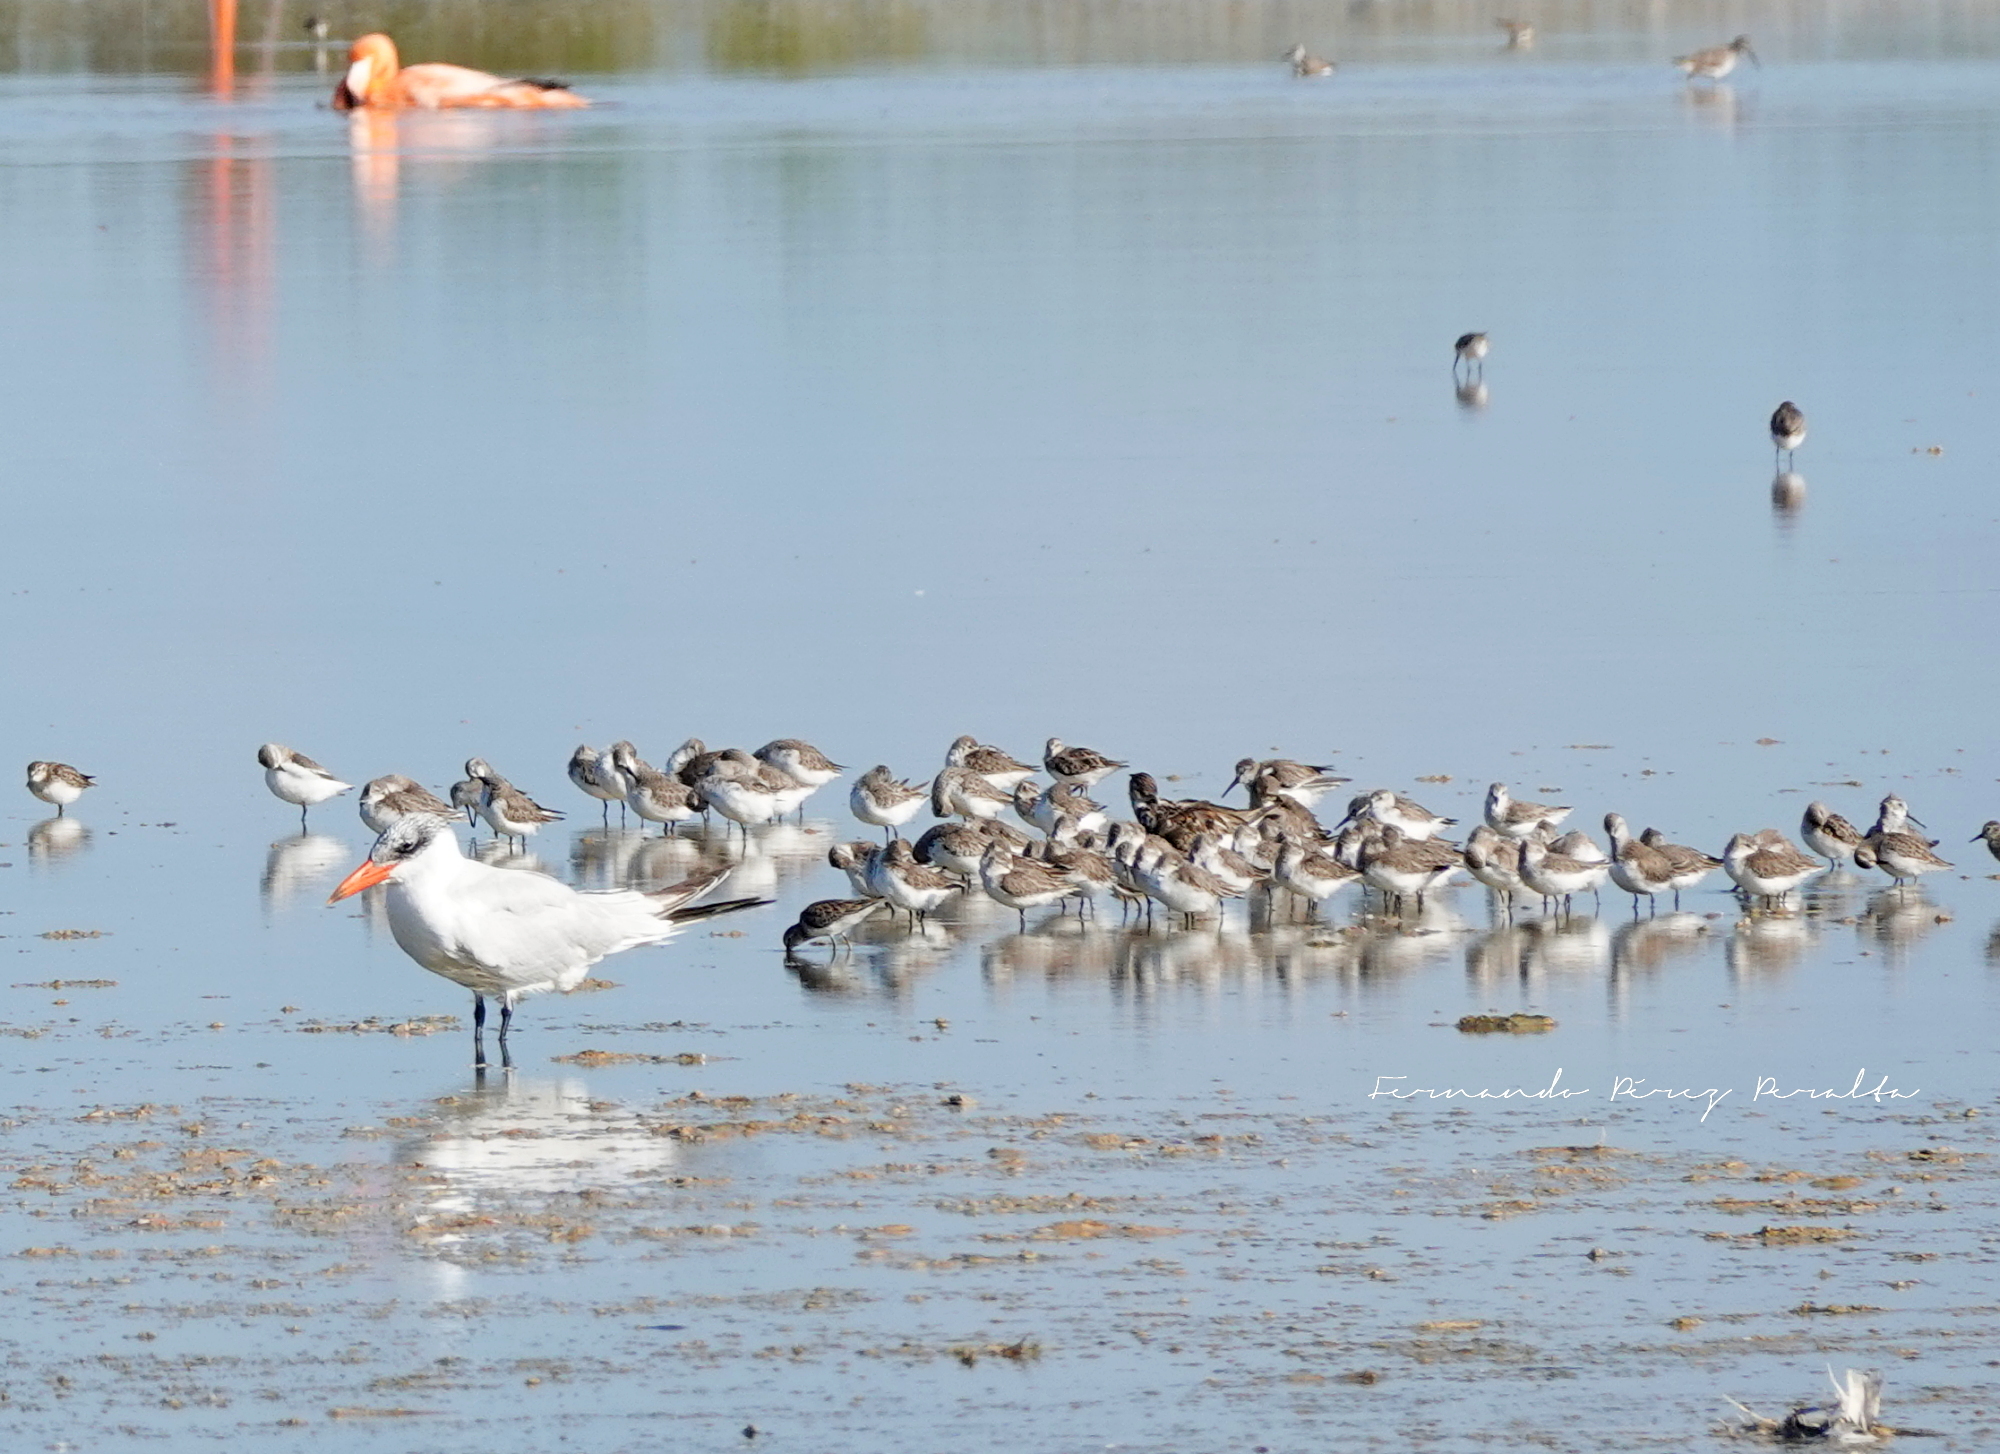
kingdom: Animalia
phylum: Chordata
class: Aves
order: Charadriiformes
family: Laridae
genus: Hydroprogne
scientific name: Hydroprogne caspia
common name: Caspian tern
